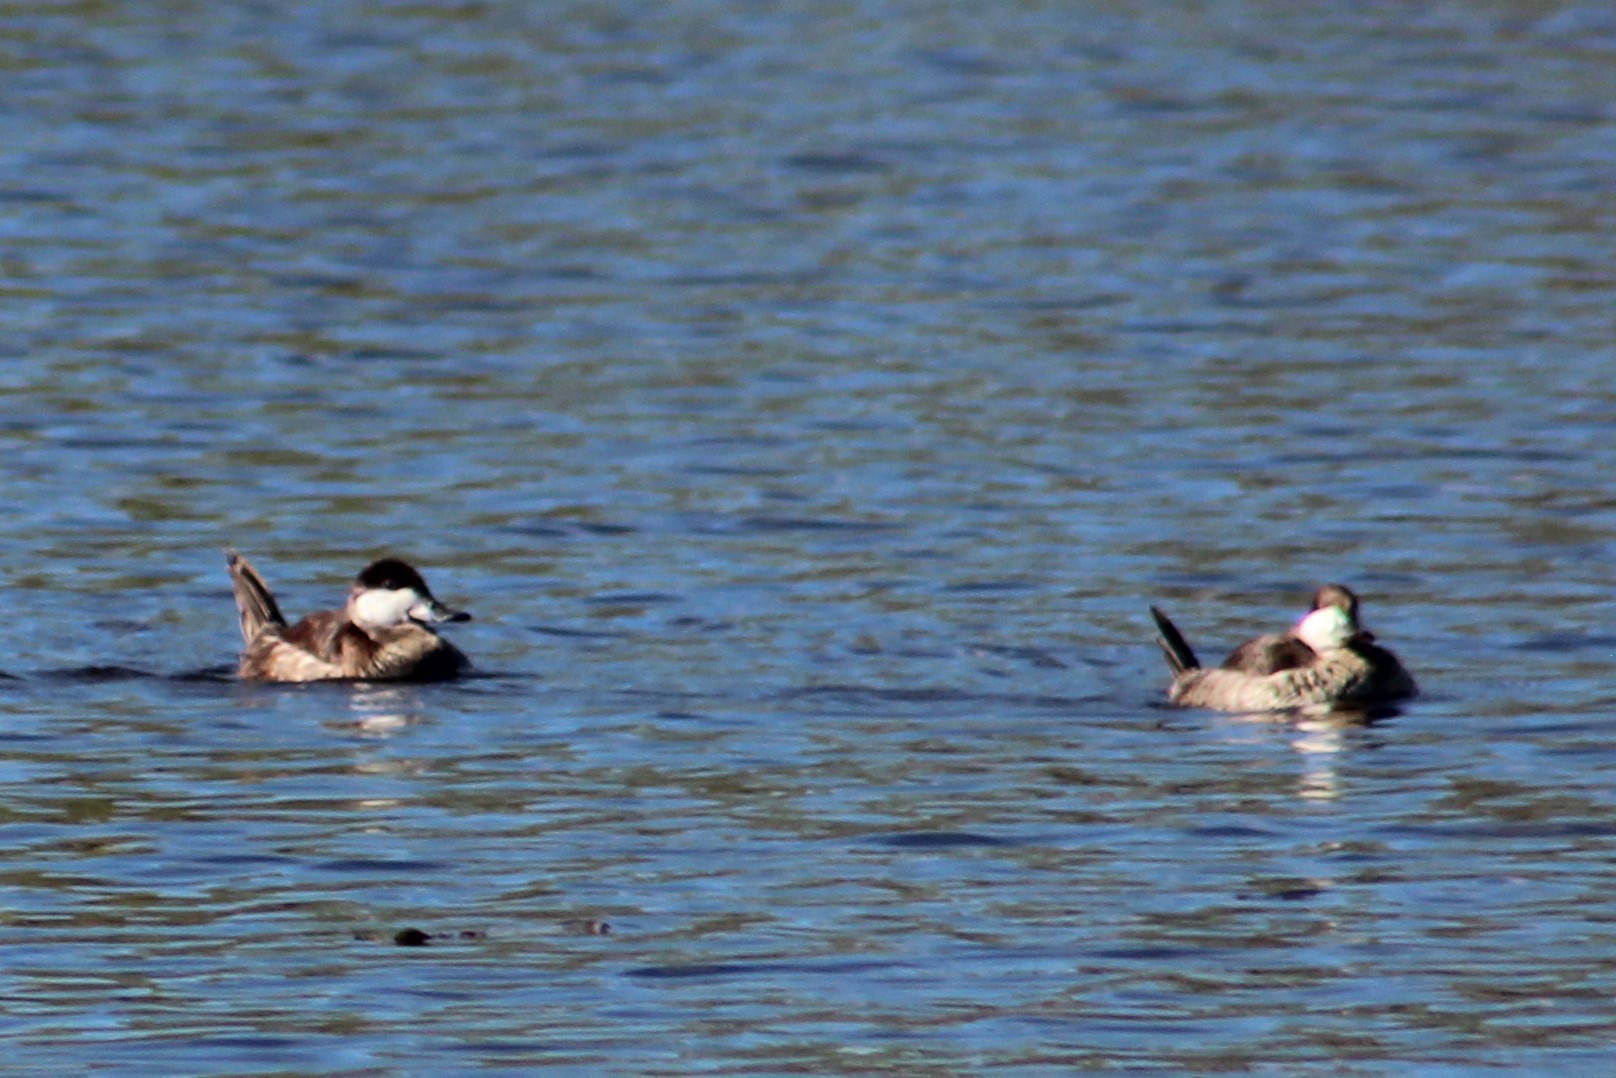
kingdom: Animalia
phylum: Chordata
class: Aves
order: Anseriformes
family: Anatidae
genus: Oxyura
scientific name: Oxyura jamaicensis
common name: Ruddy duck
